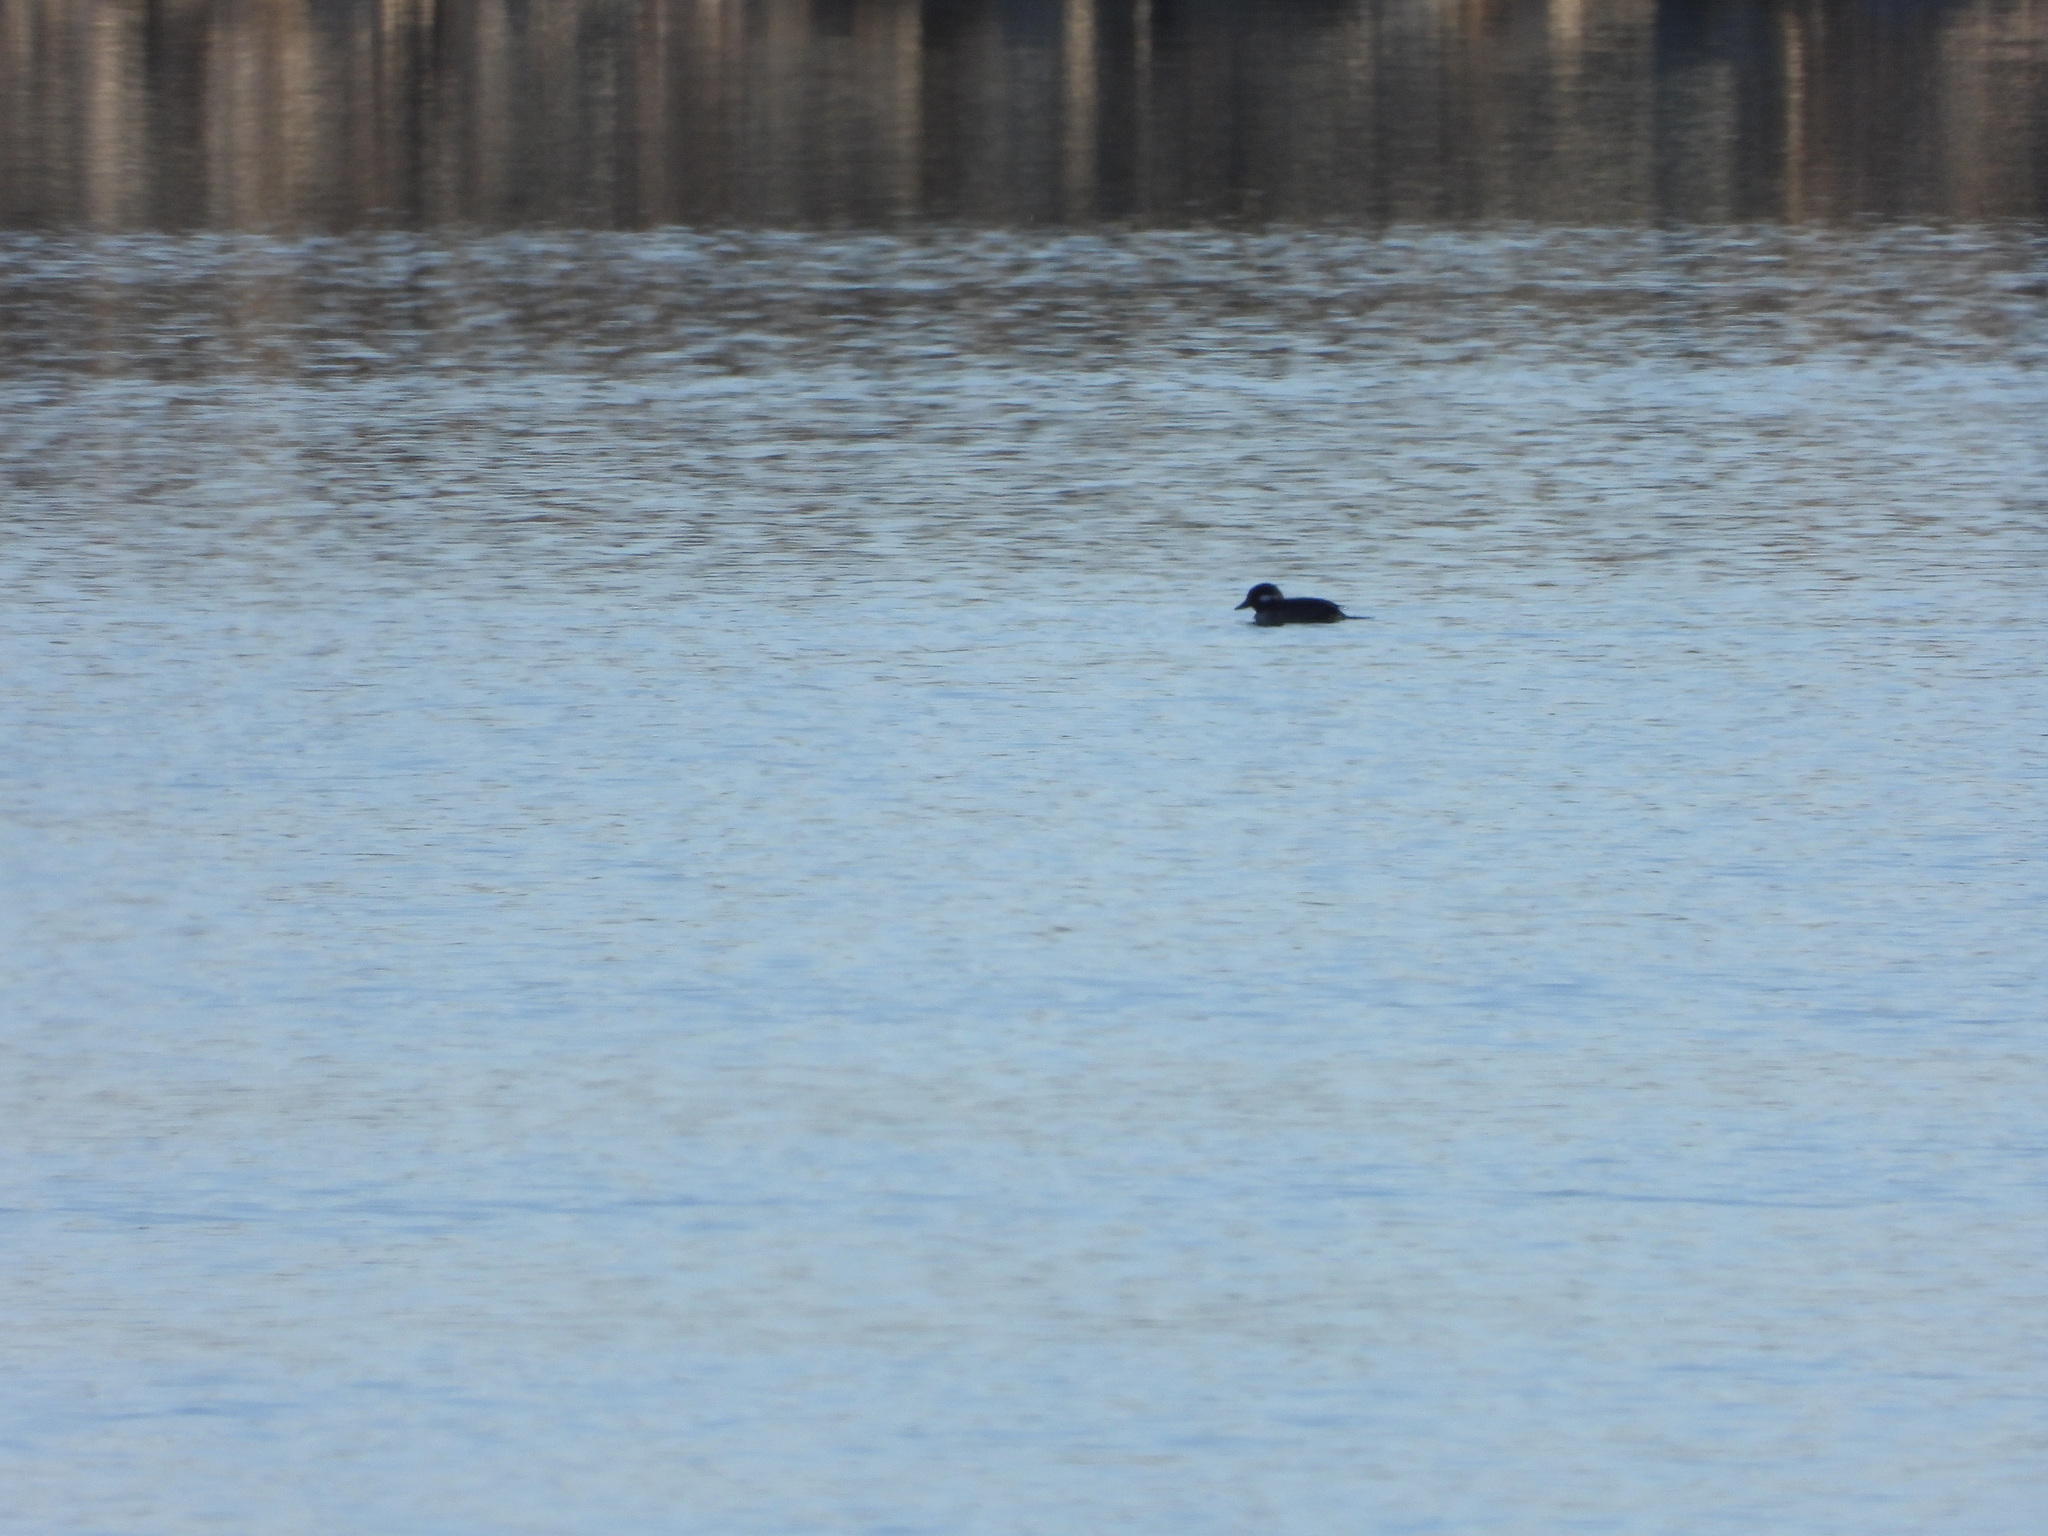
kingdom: Animalia
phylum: Chordata
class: Aves
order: Anseriformes
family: Anatidae
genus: Bucephala
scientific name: Bucephala albeola
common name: Bufflehead
